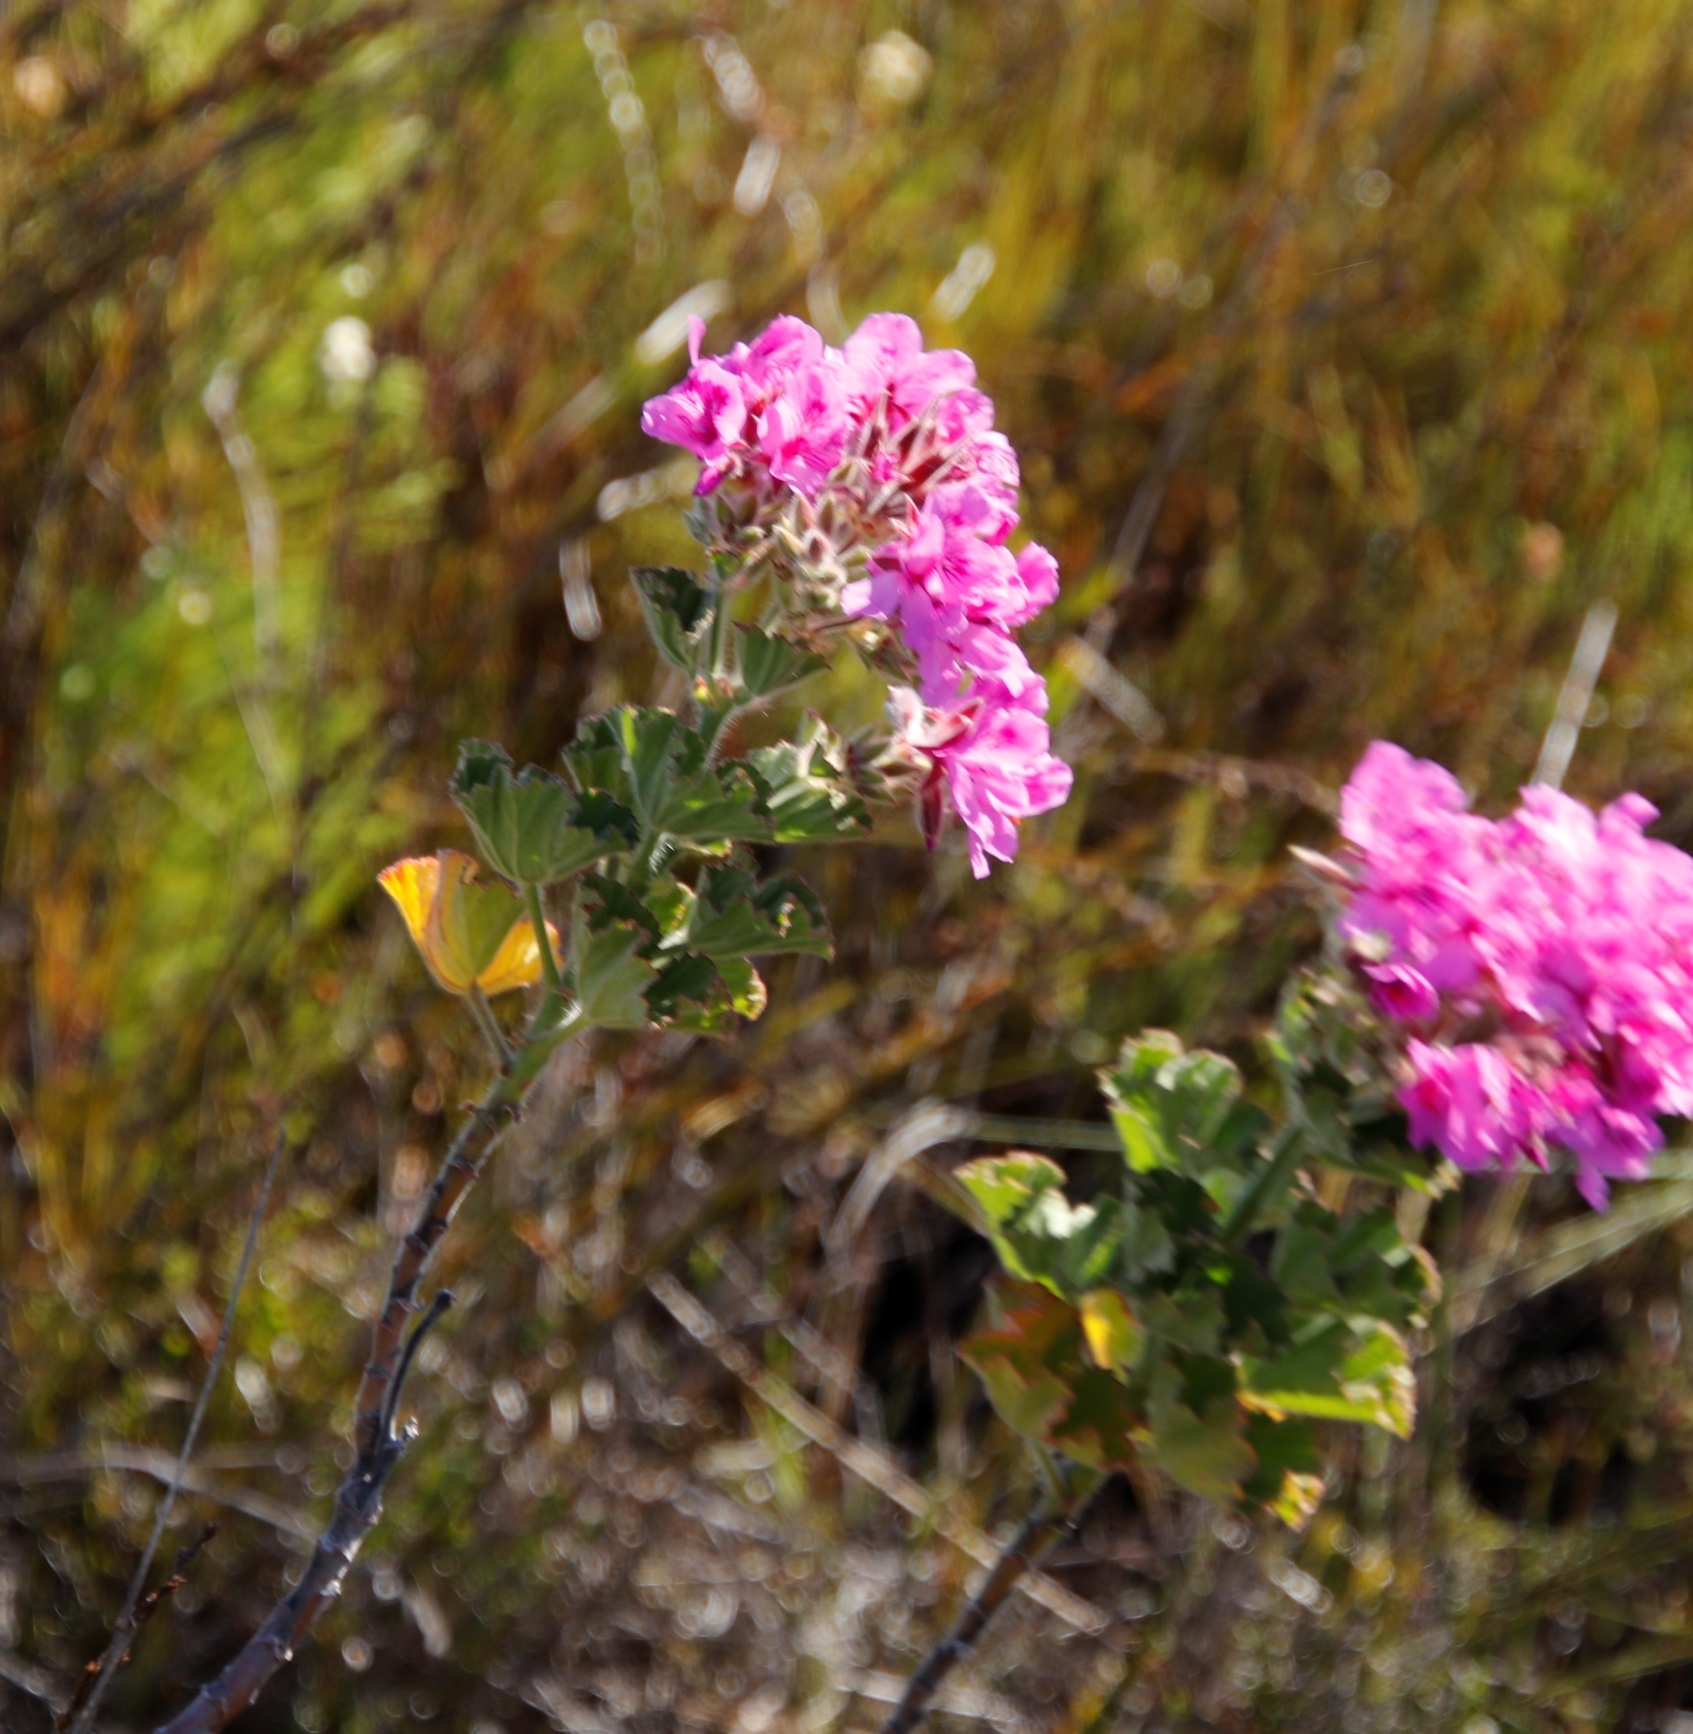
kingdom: Plantae
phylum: Tracheophyta
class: Magnoliopsida
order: Geraniales
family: Geraniaceae
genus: Pelargonium
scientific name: Pelargonium cucullatum
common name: Tree pelargonium
